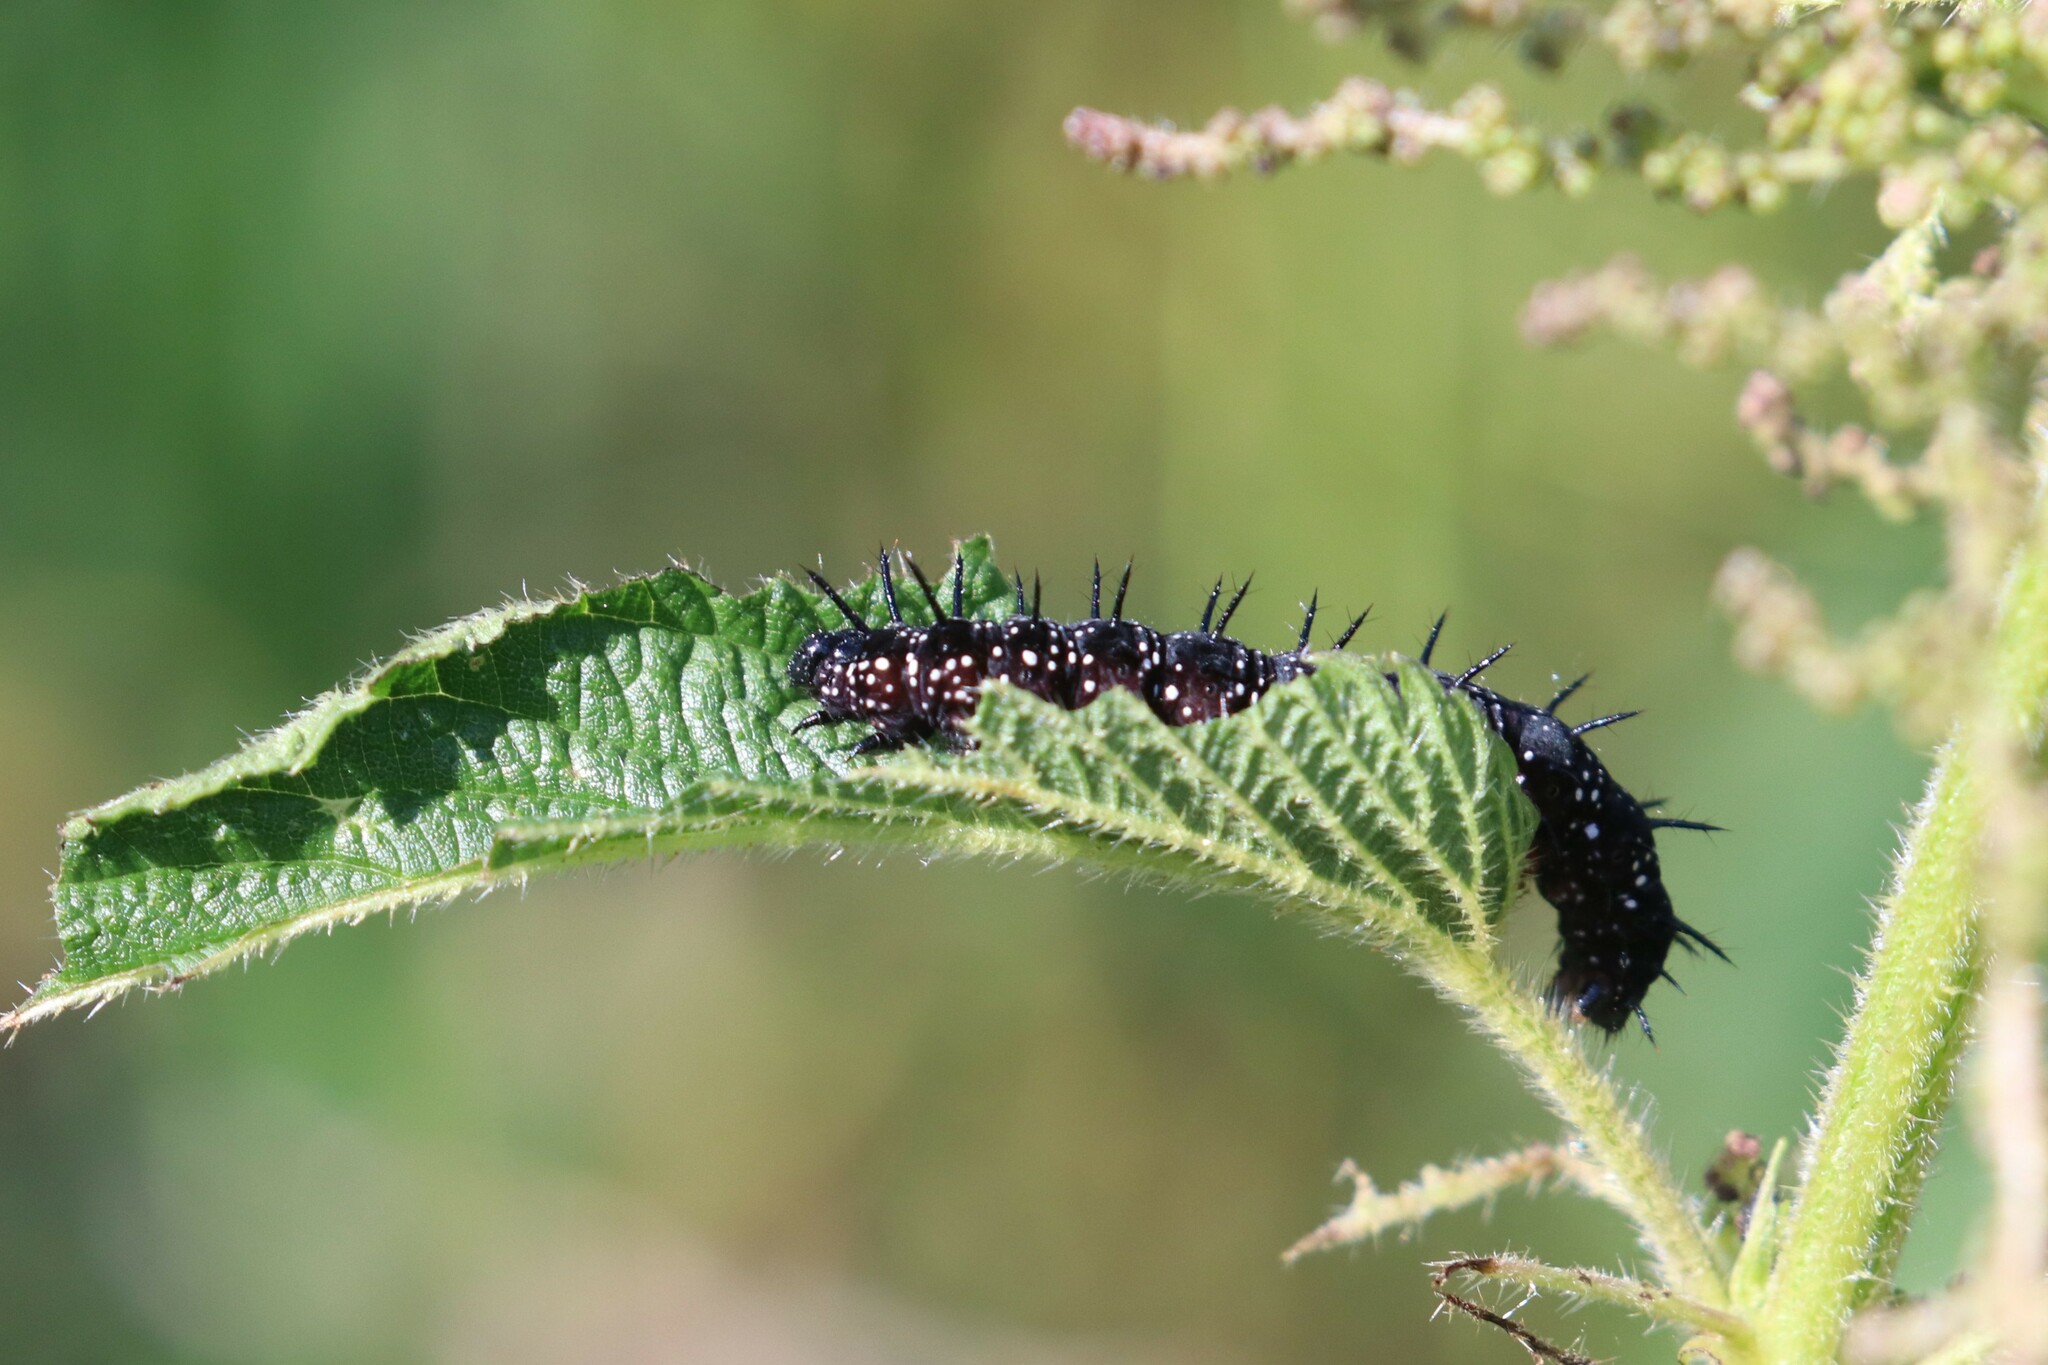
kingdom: Animalia
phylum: Arthropoda
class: Insecta
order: Lepidoptera
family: Nymphalidae
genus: Aglais
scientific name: Aglais io
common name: Peacock
